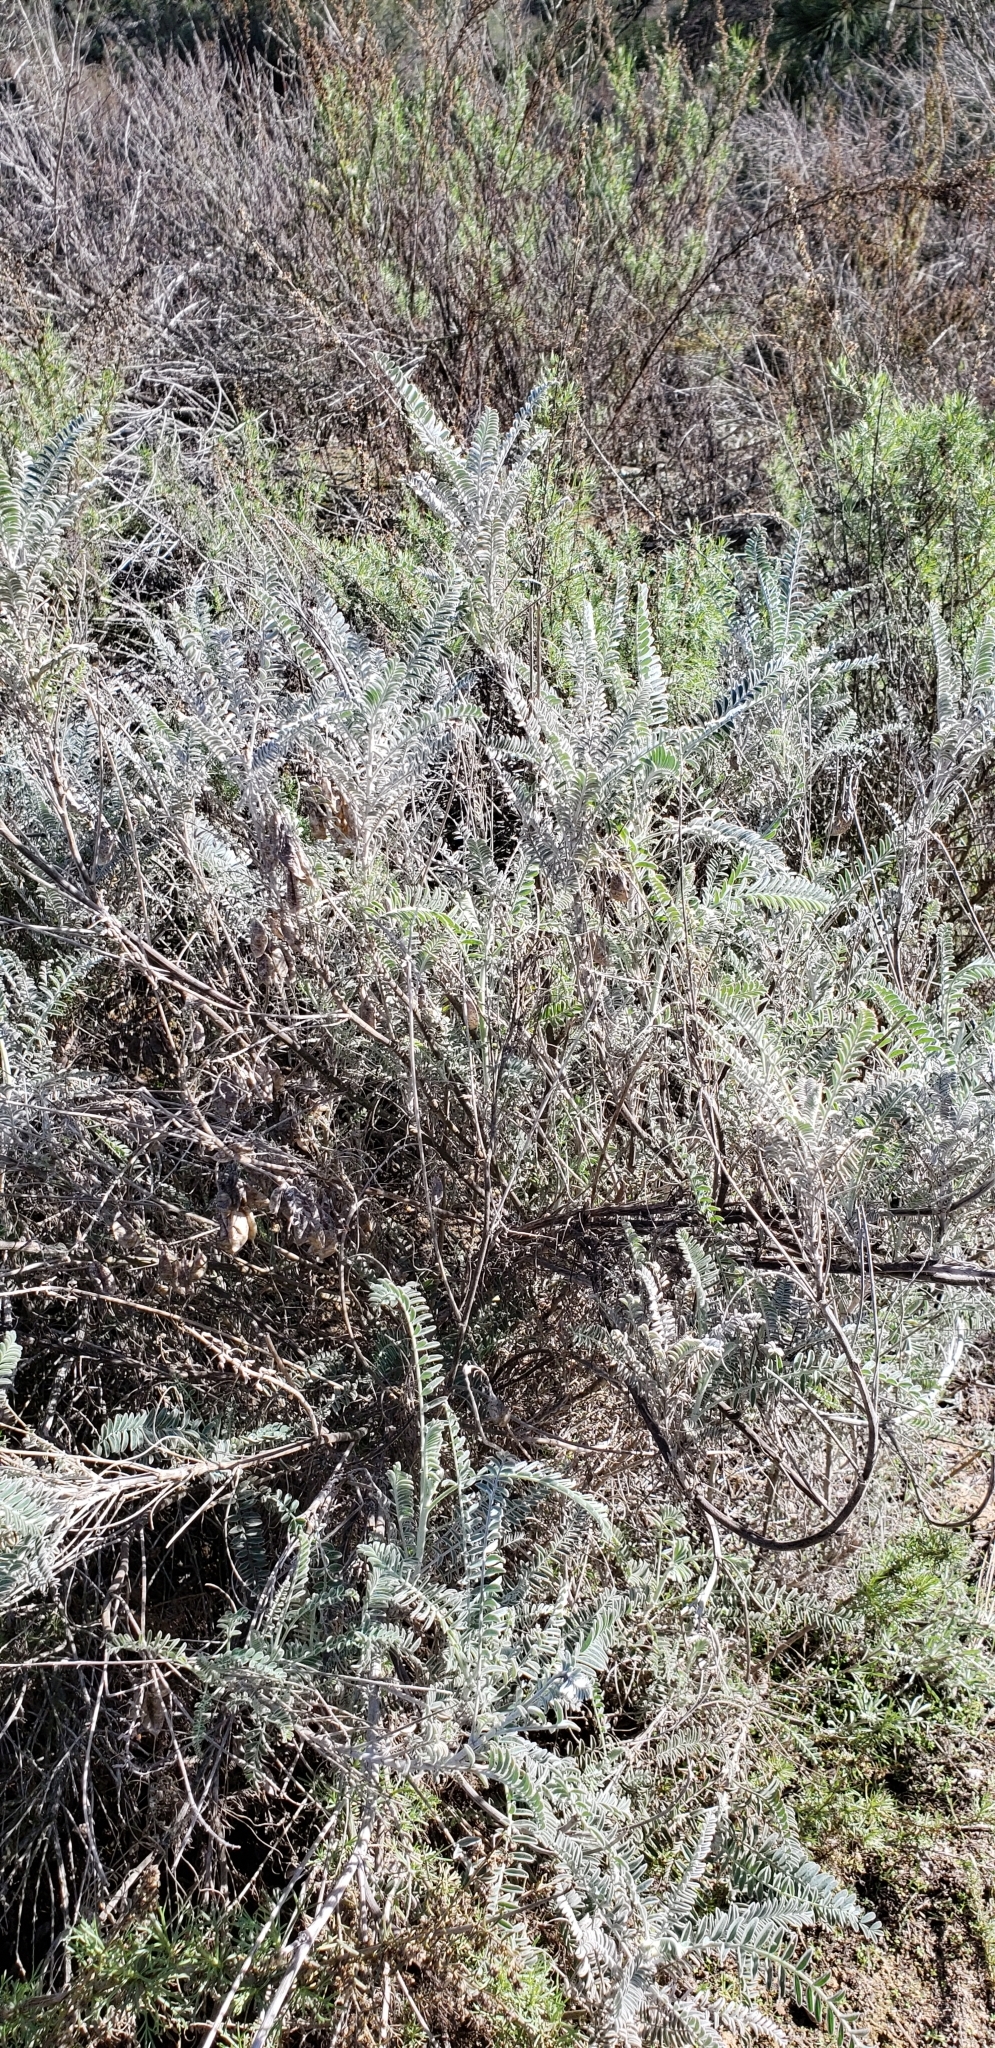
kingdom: Plantae
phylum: Tracheophyta
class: Magnoliopsida
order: Fabales
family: Fabaceae
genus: Astragalus
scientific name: Astragalus trichopodus
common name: Santa barbara milk-vetch
